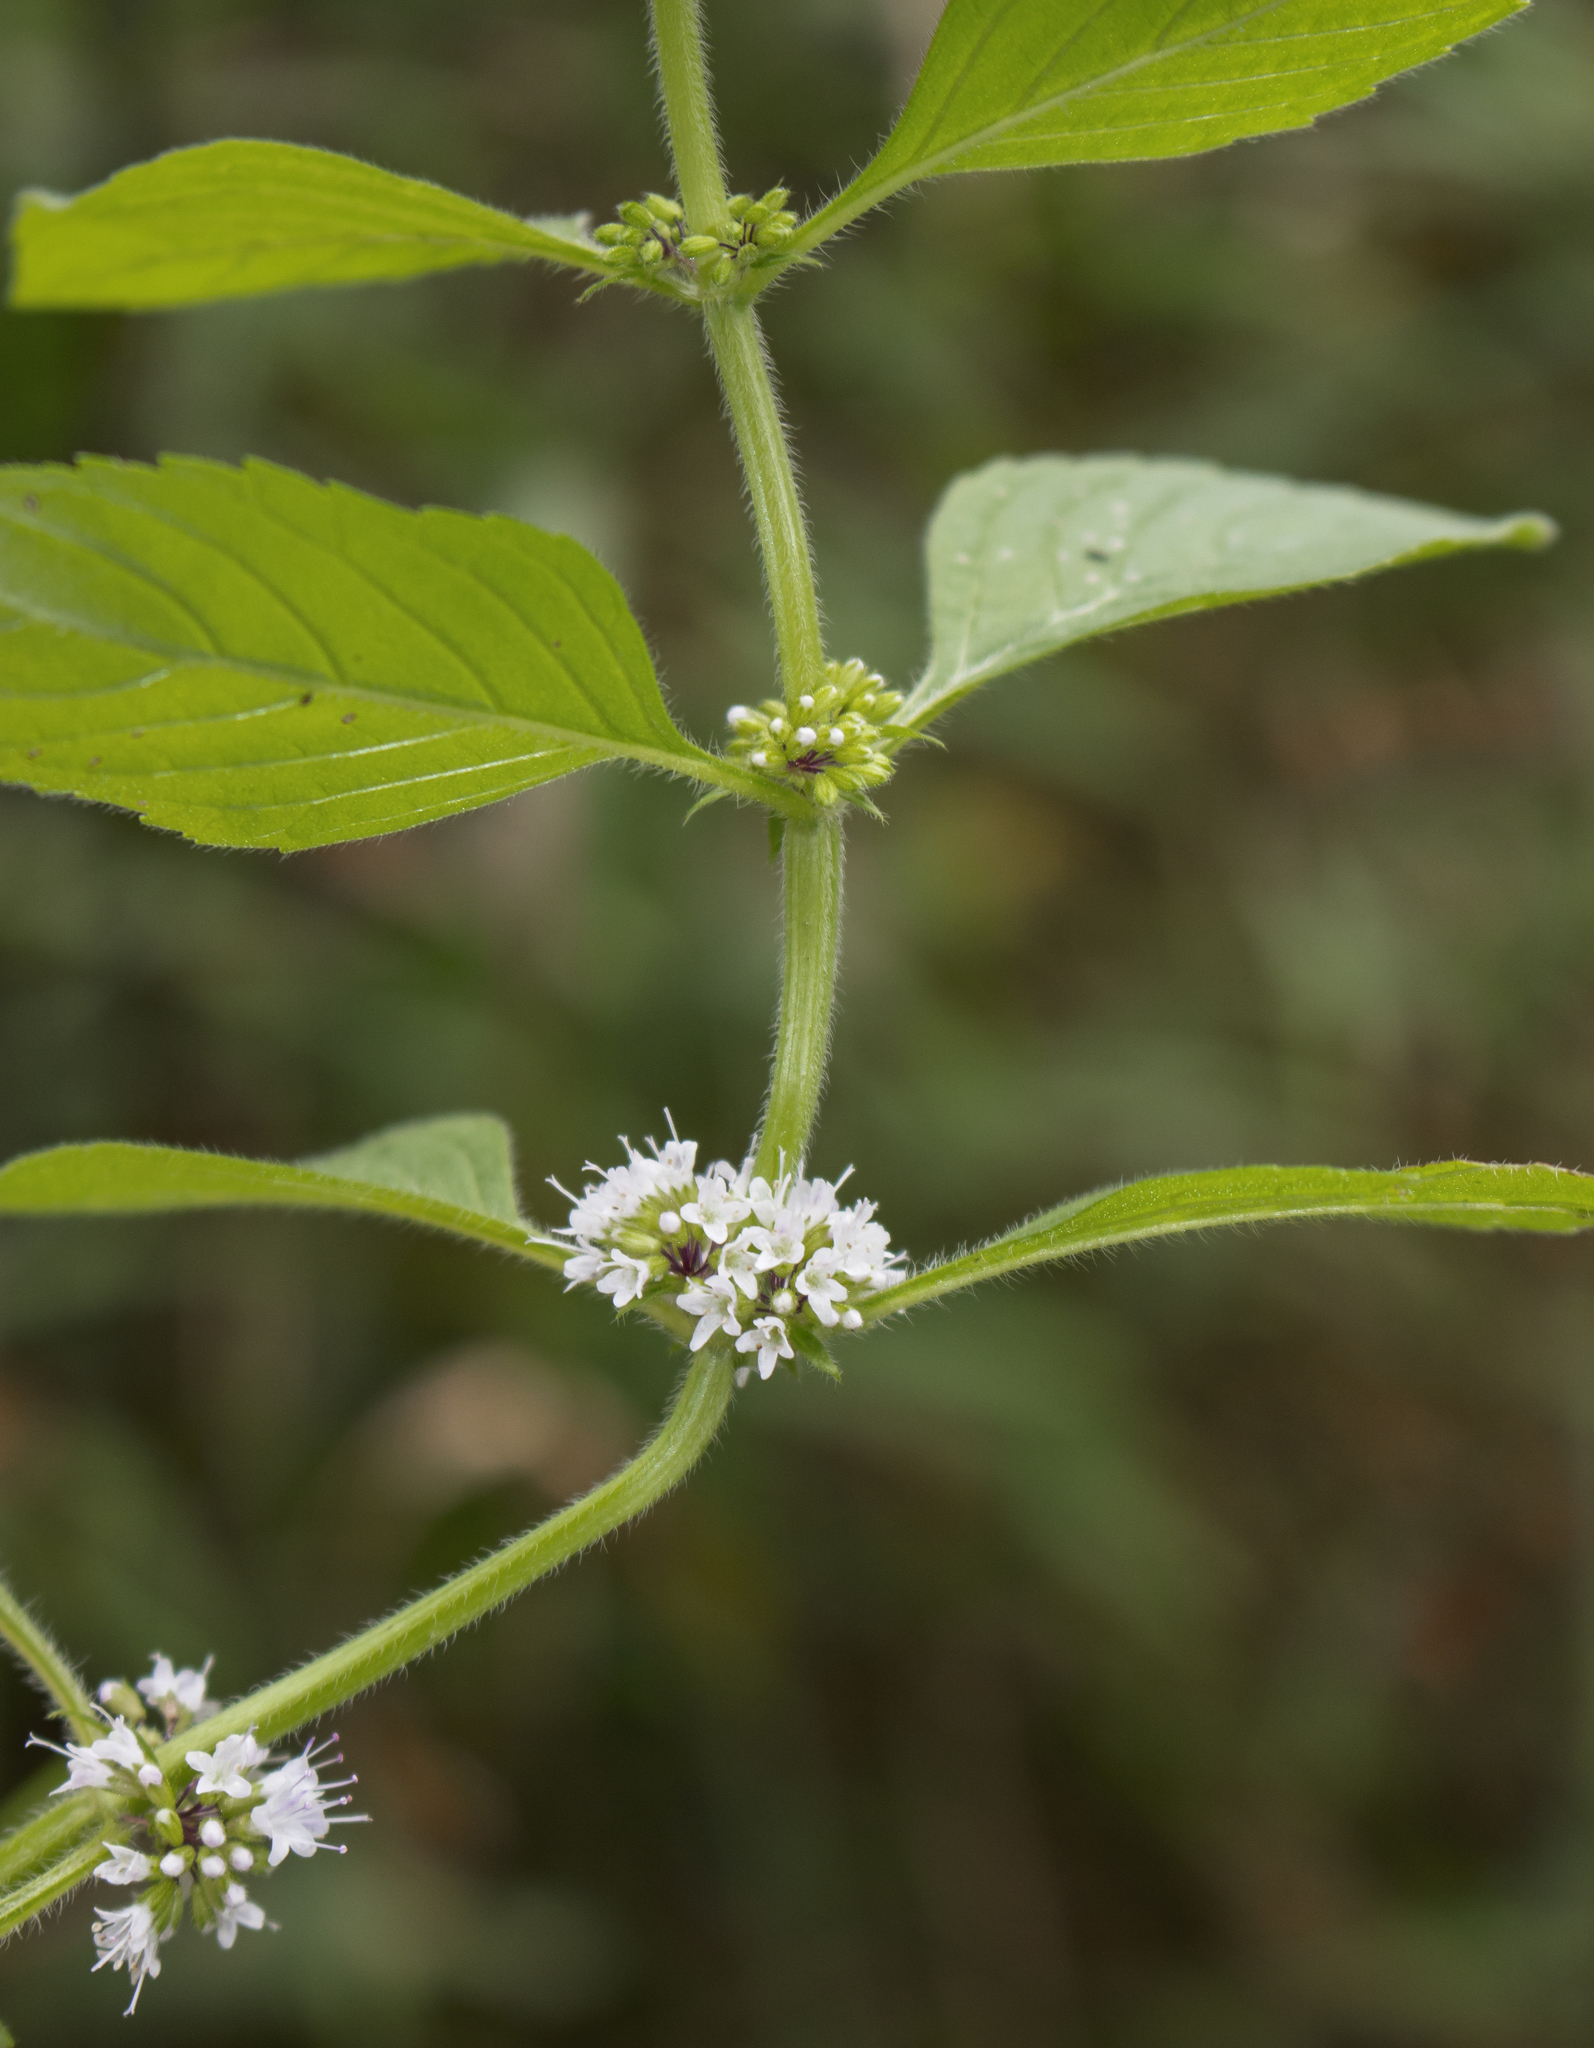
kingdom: Plantae
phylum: Tracheophyta
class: Magnoliopsida
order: Lamiales
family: Lamiaceae
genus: Mentha
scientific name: Mentha canadensis
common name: American corn mint
